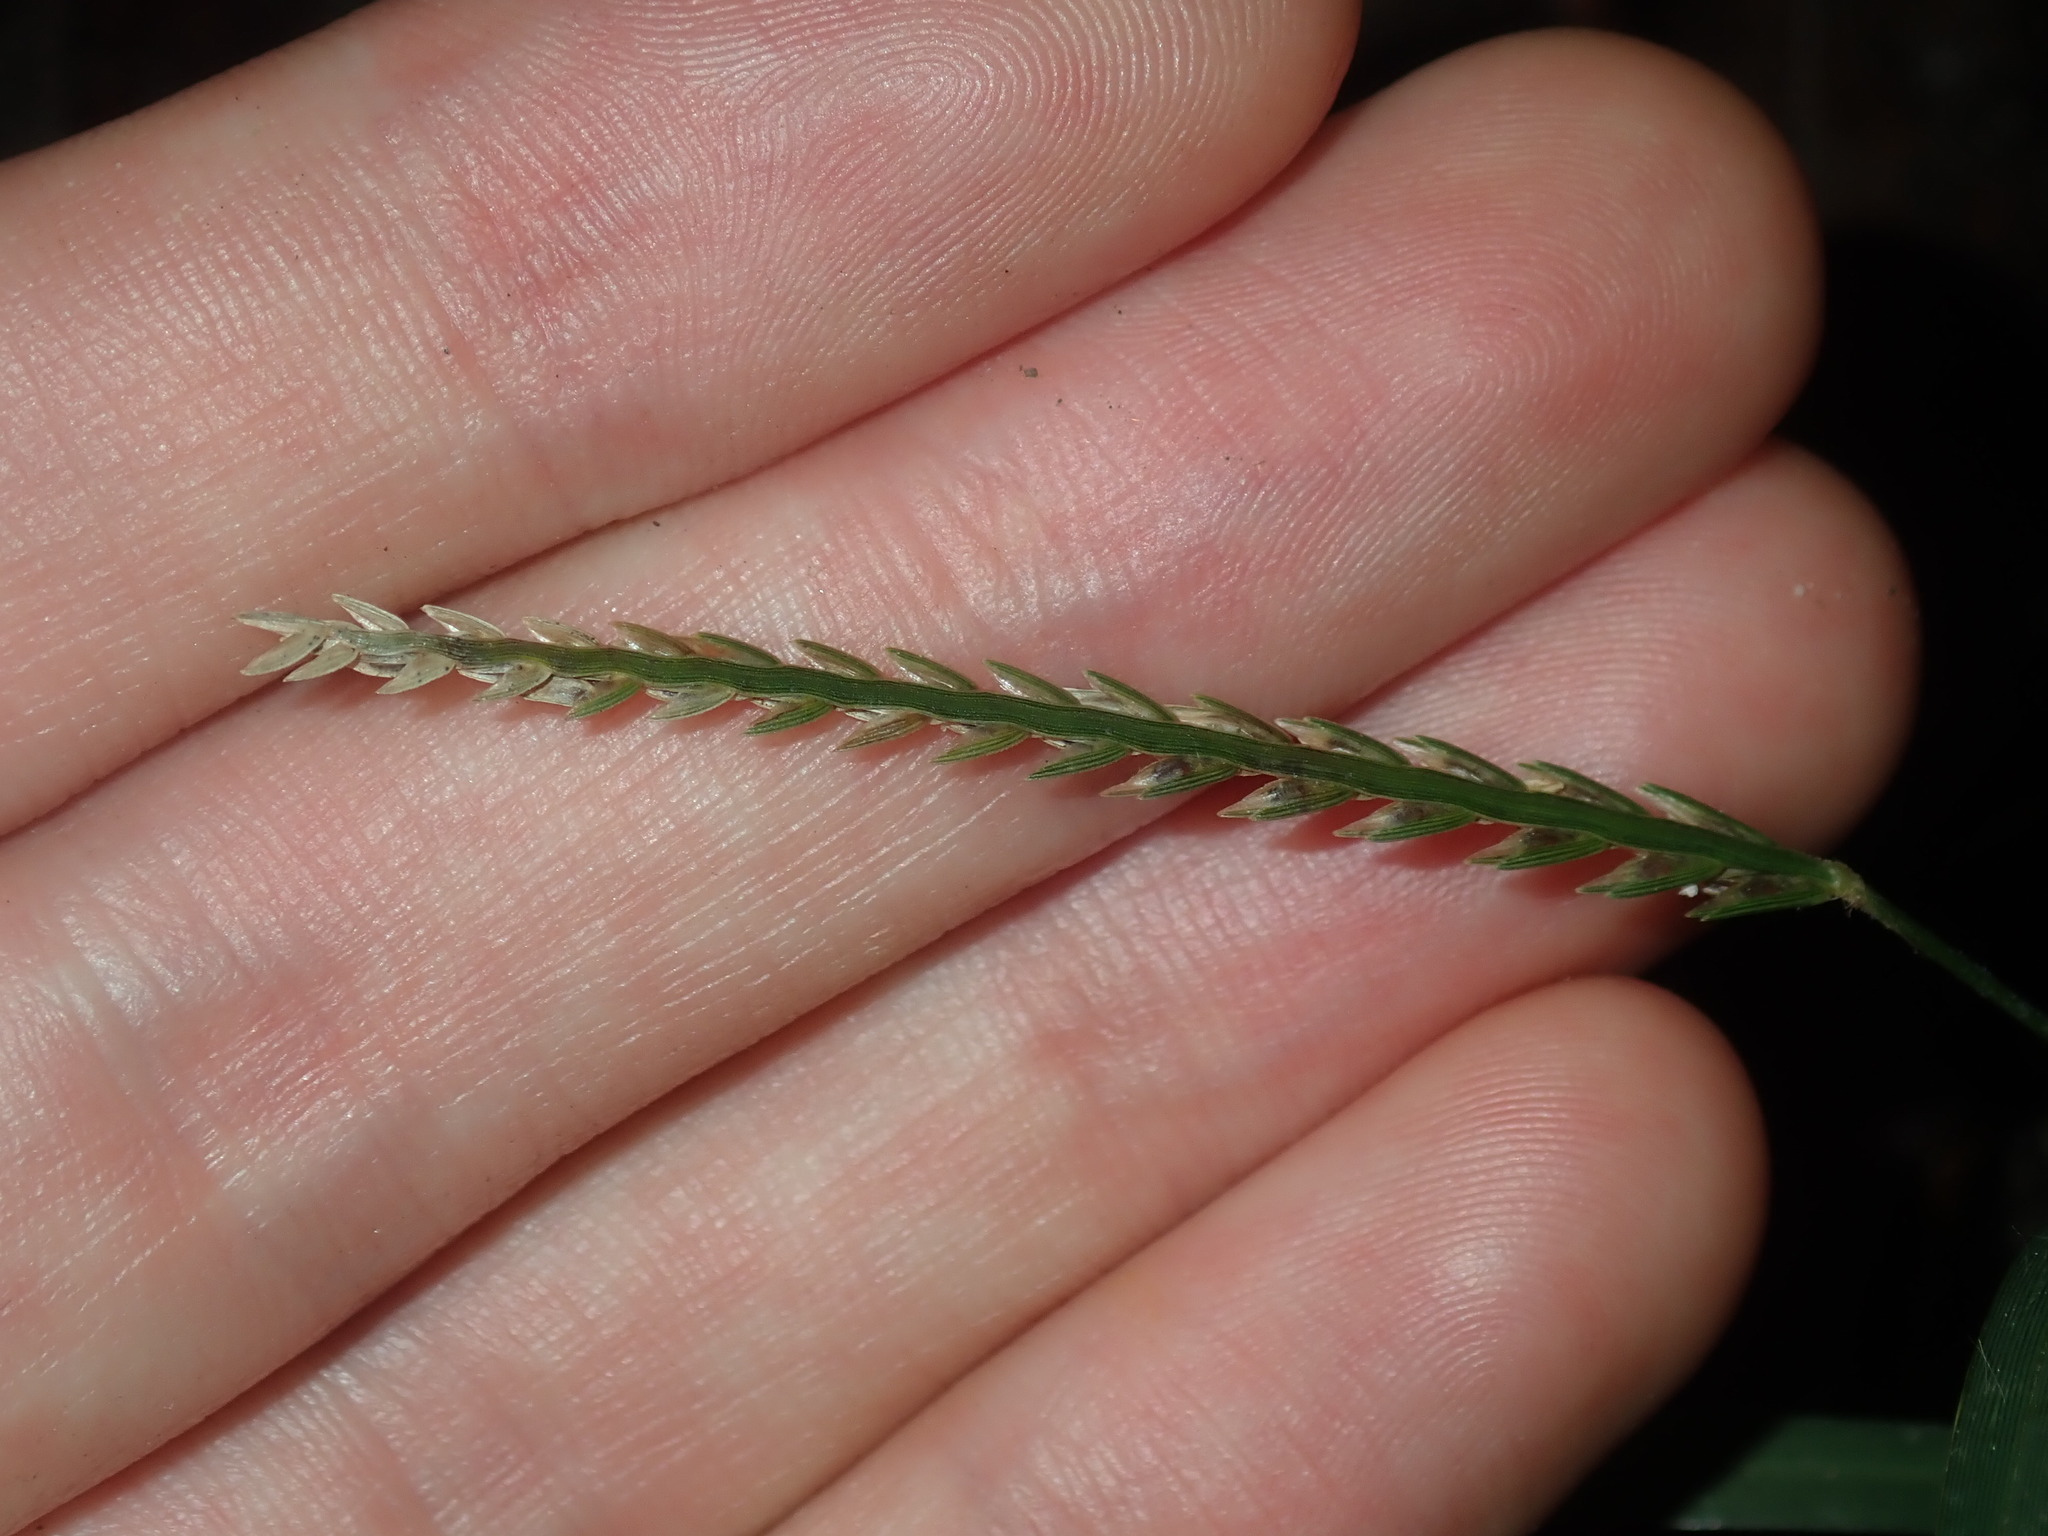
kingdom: Plantae
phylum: Tracheophyta
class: Liliopsida
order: Poales
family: Poaceae
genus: Eleusine
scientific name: Eleusine indica
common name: Yard-grass
